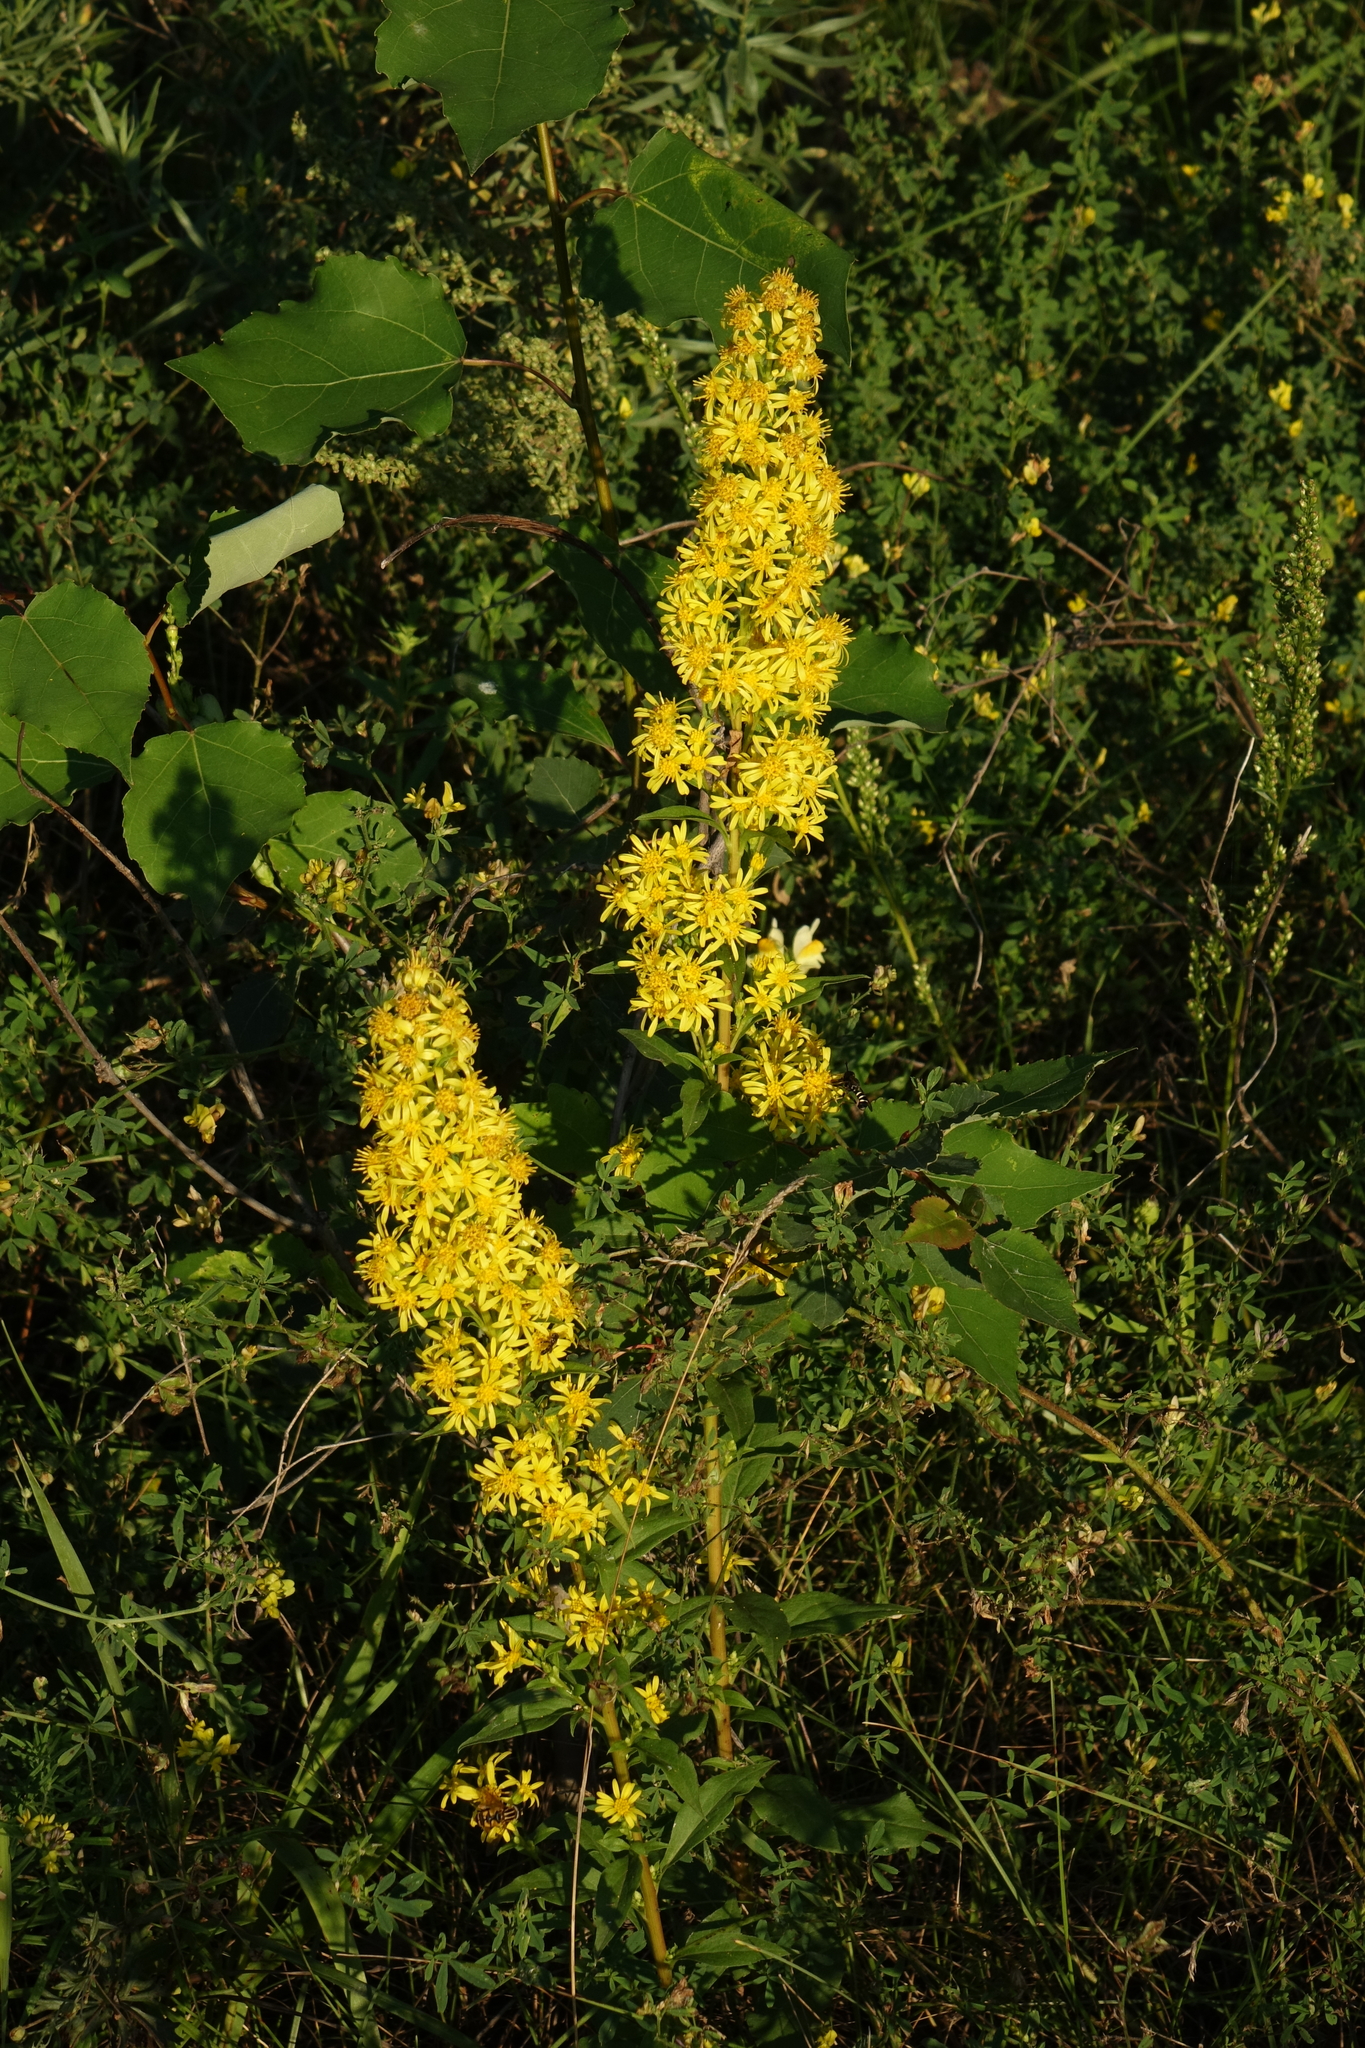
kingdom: Plantae
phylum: Tracheophyta
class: Magnoliopsida
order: Asterales
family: Asteraceae
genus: Solidago
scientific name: Solidago virgaurea
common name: Goldenrod
